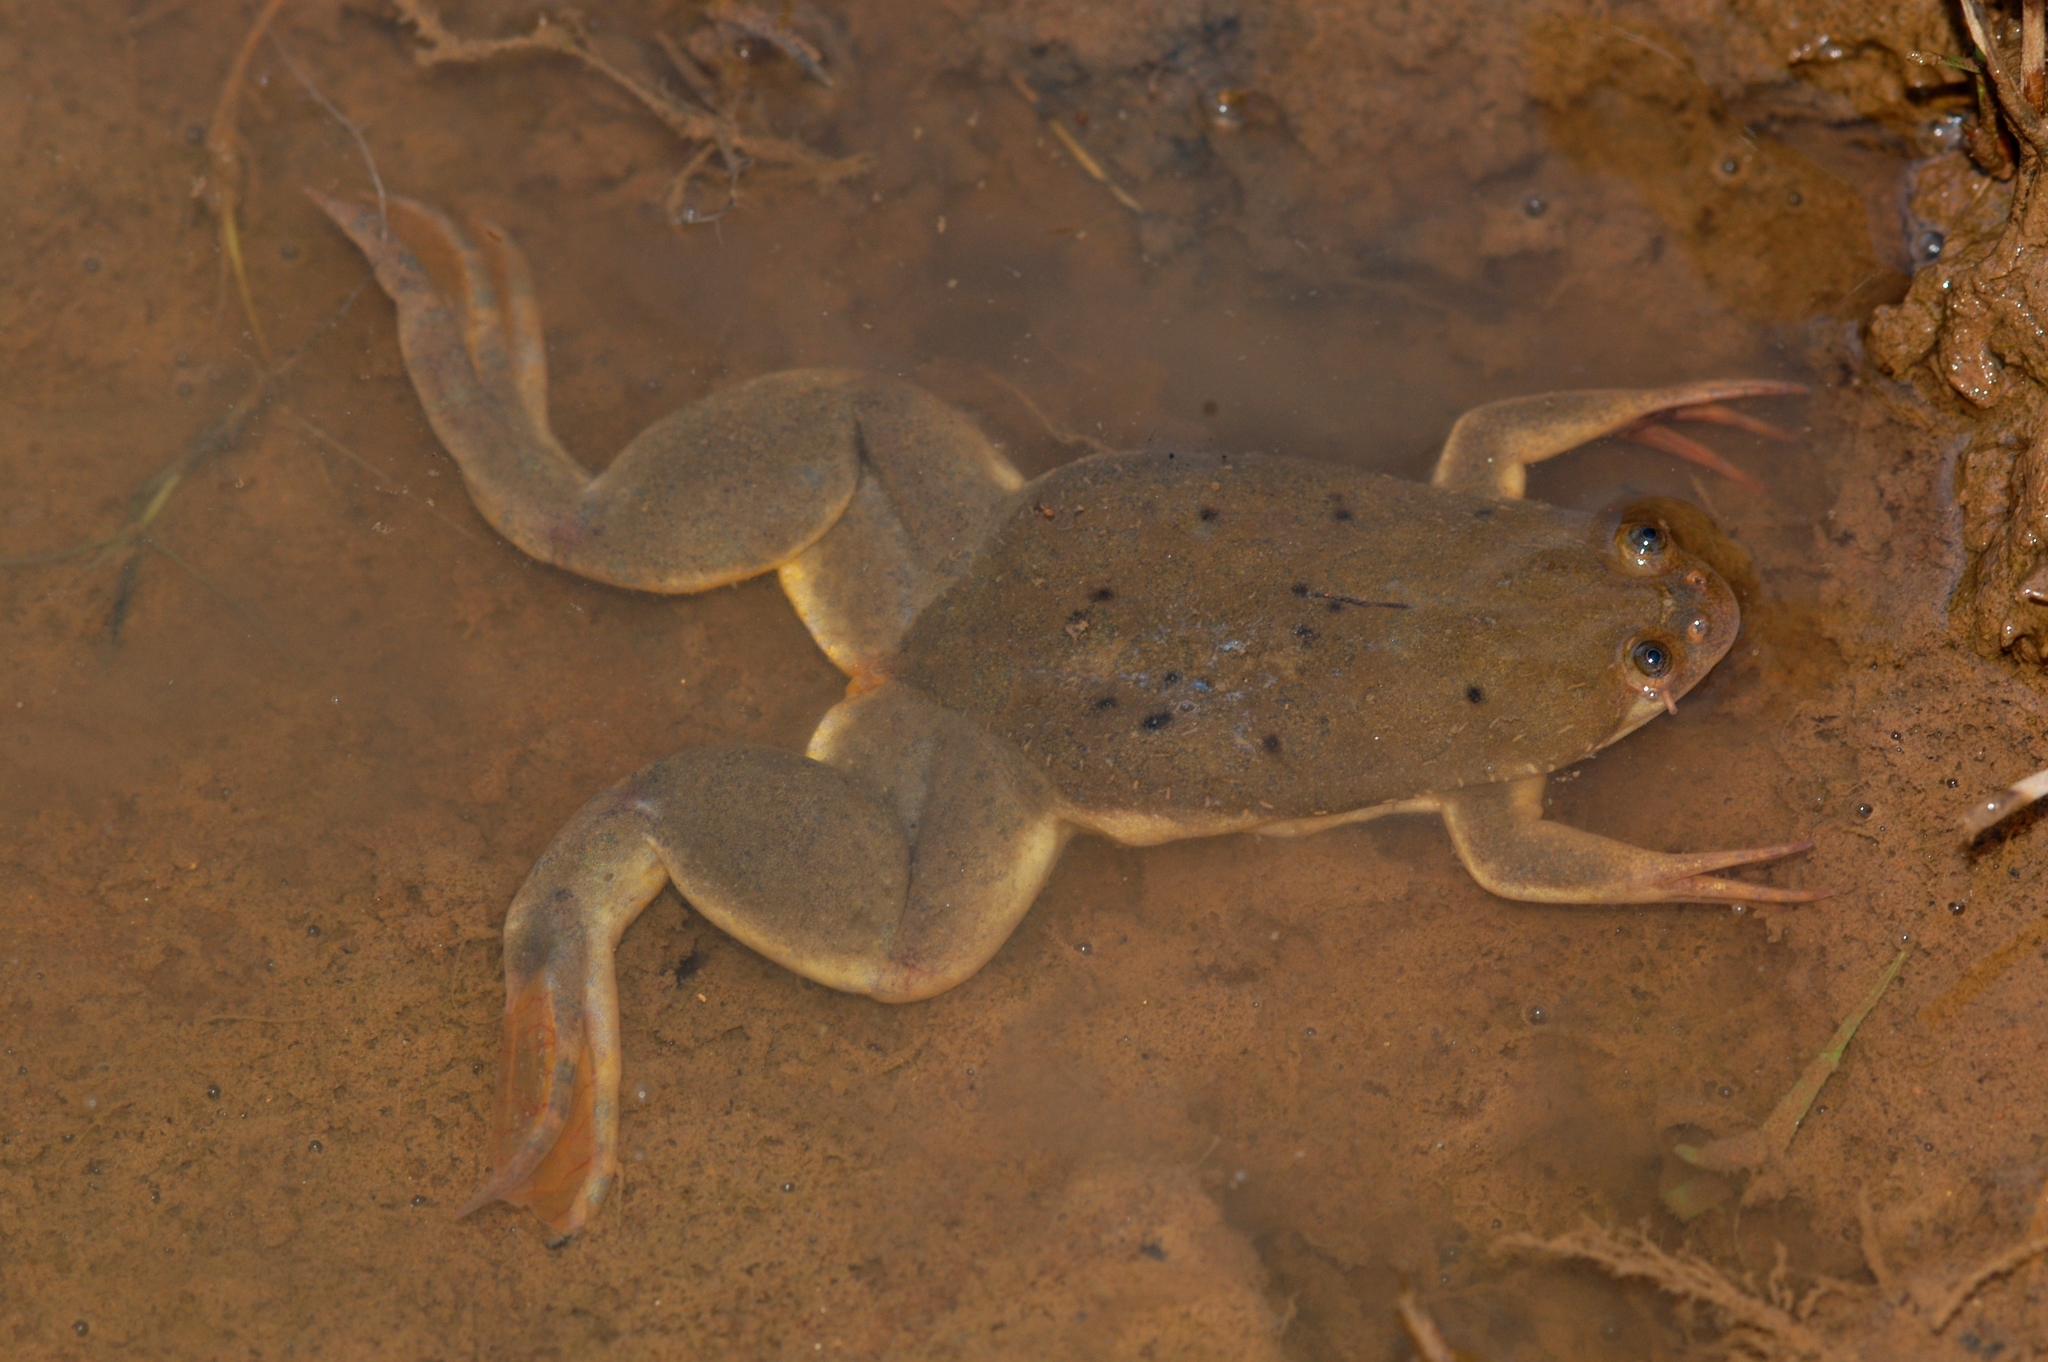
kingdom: Animalia
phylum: Chordata
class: Amphibia
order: Anura
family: Pipidae
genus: Xenopus
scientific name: Xenopus muelleri
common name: Muller's clawed frog
